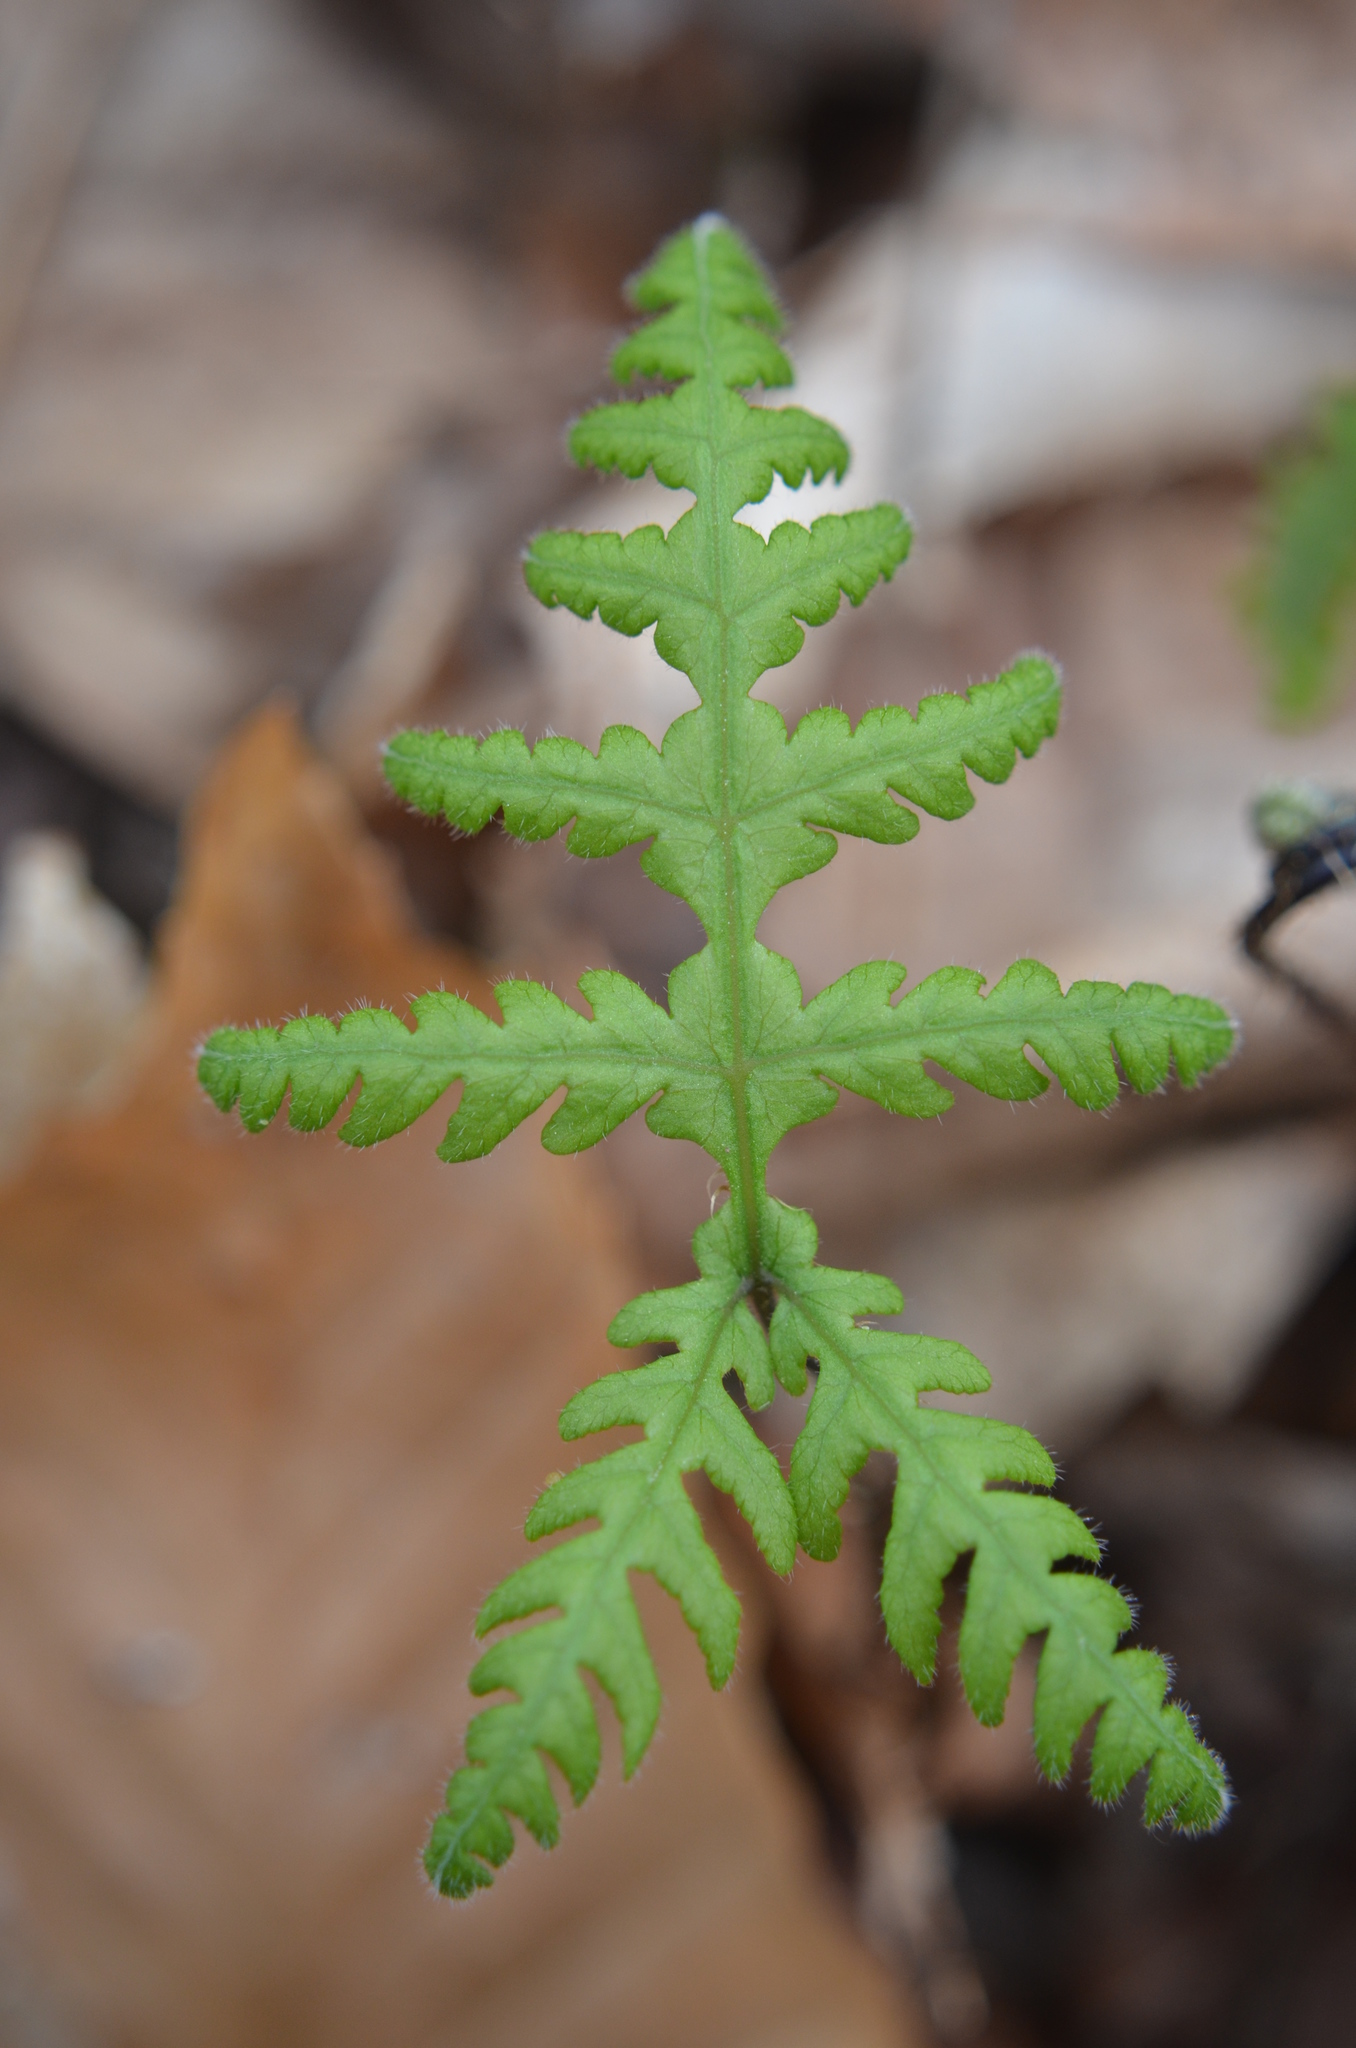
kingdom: Plantae
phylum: Tracheophyta
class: Polypodiopsida
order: Polypodiales
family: Thelypteridaceae
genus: Phegopteris
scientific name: Phegopteris hexagonoptera
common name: Broad beech fern
